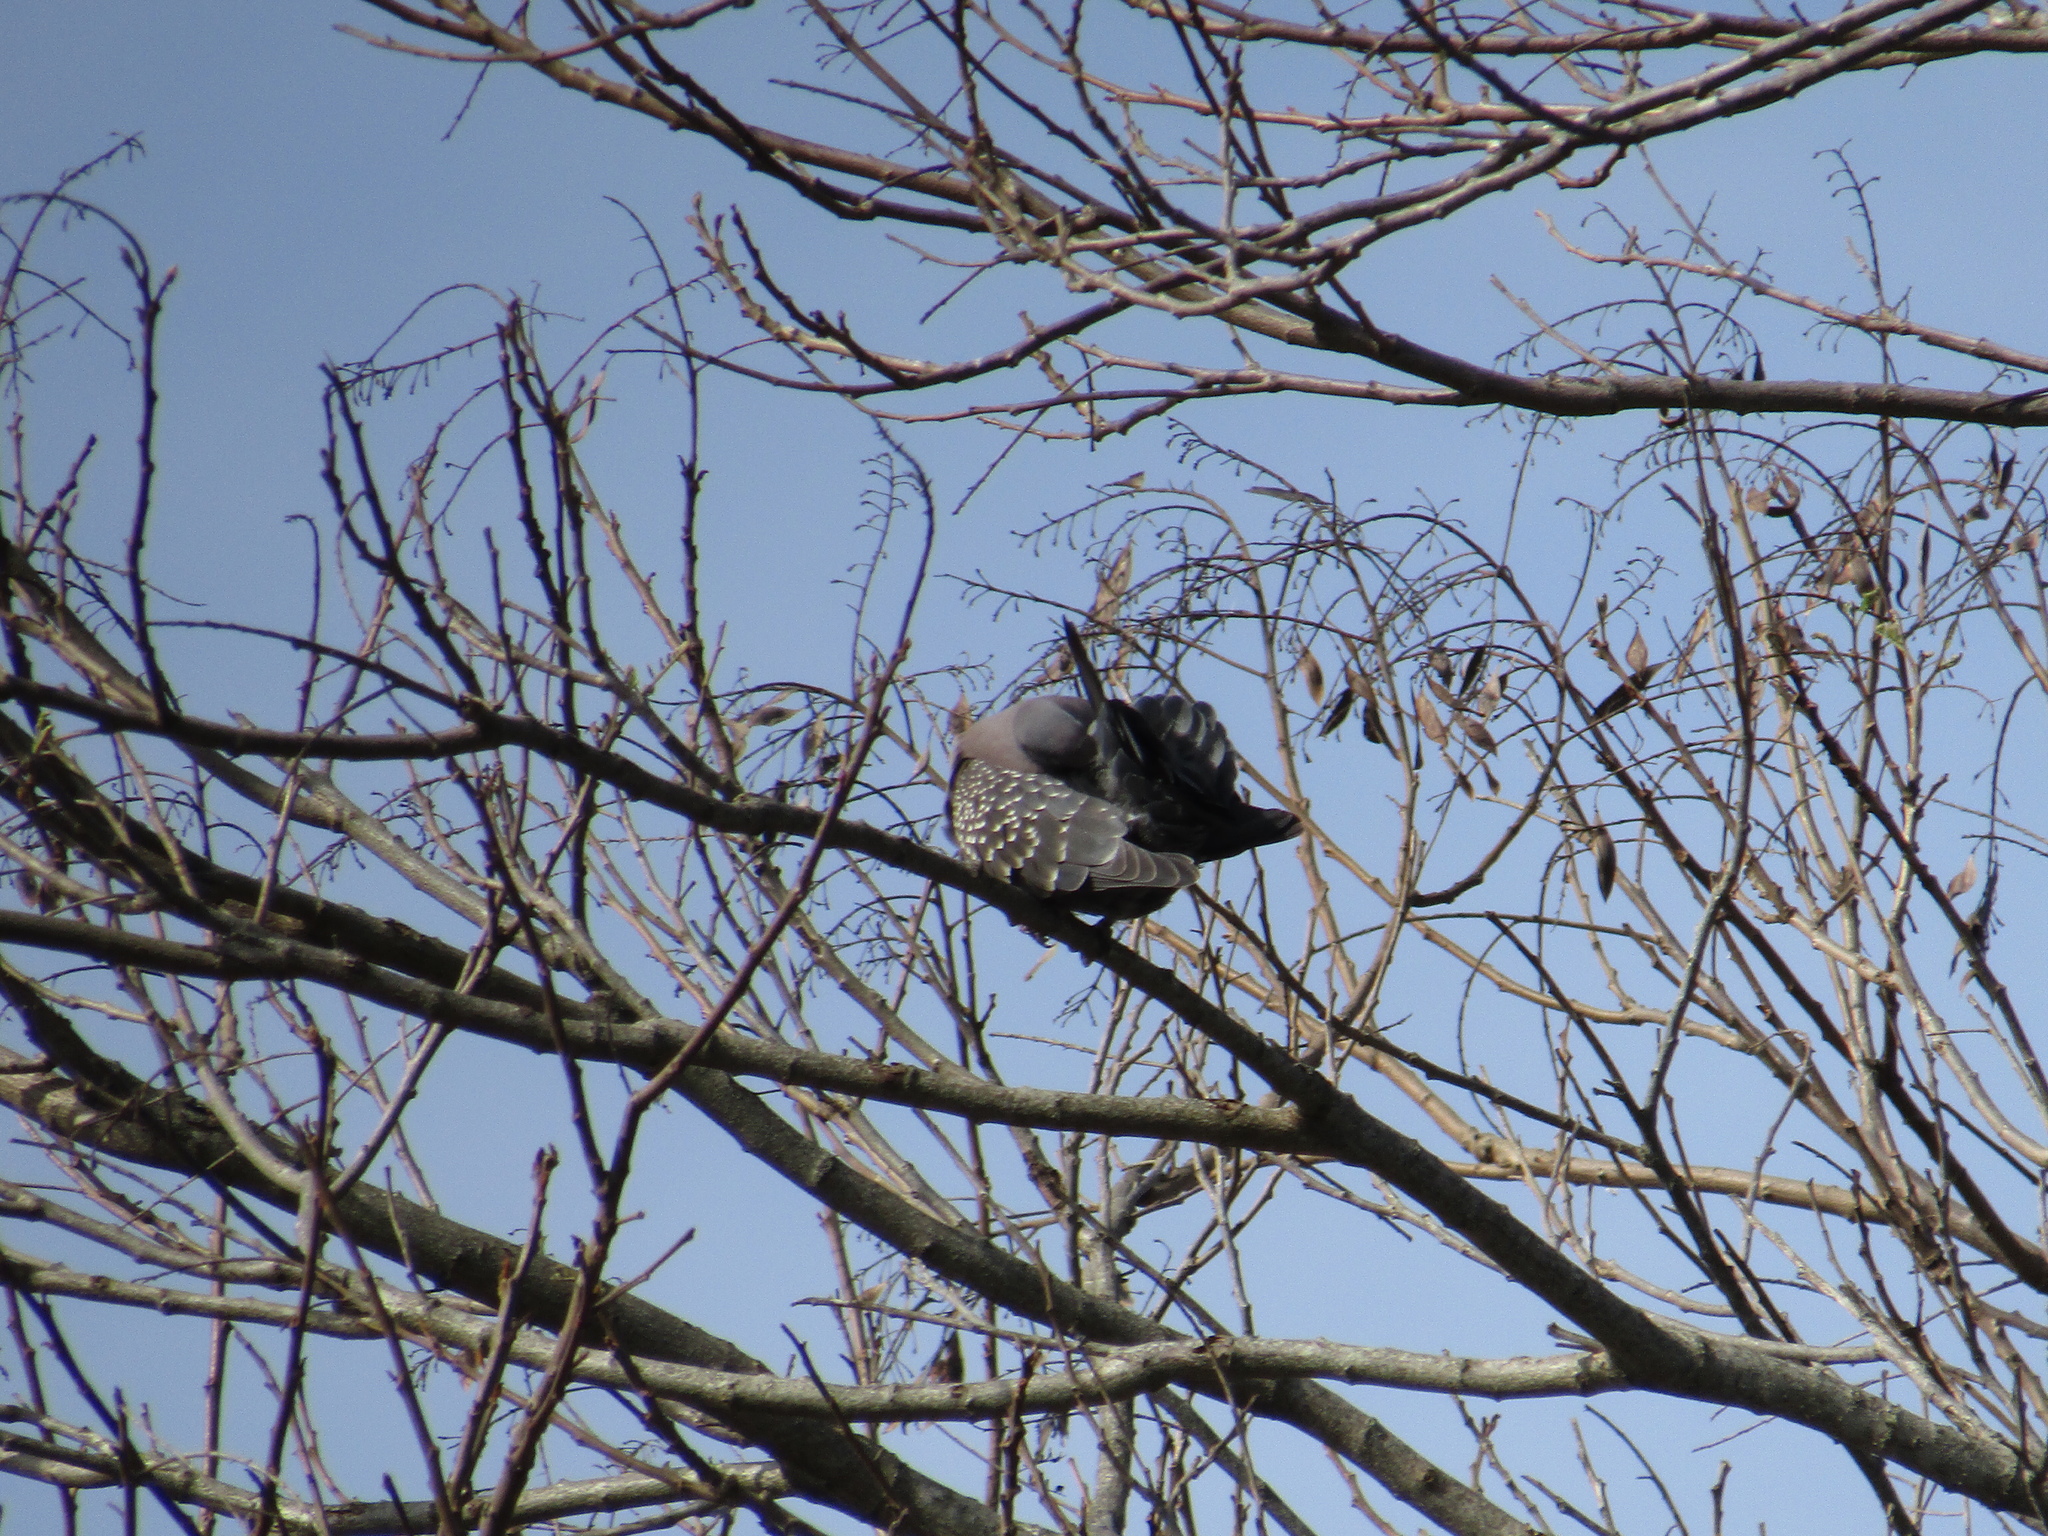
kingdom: Animalia
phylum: Chordata
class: Aves
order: Columbiformes
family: Columbidae
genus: Patagioenas
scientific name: Patagioenas maculosa
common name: Spot-winged pigeon
